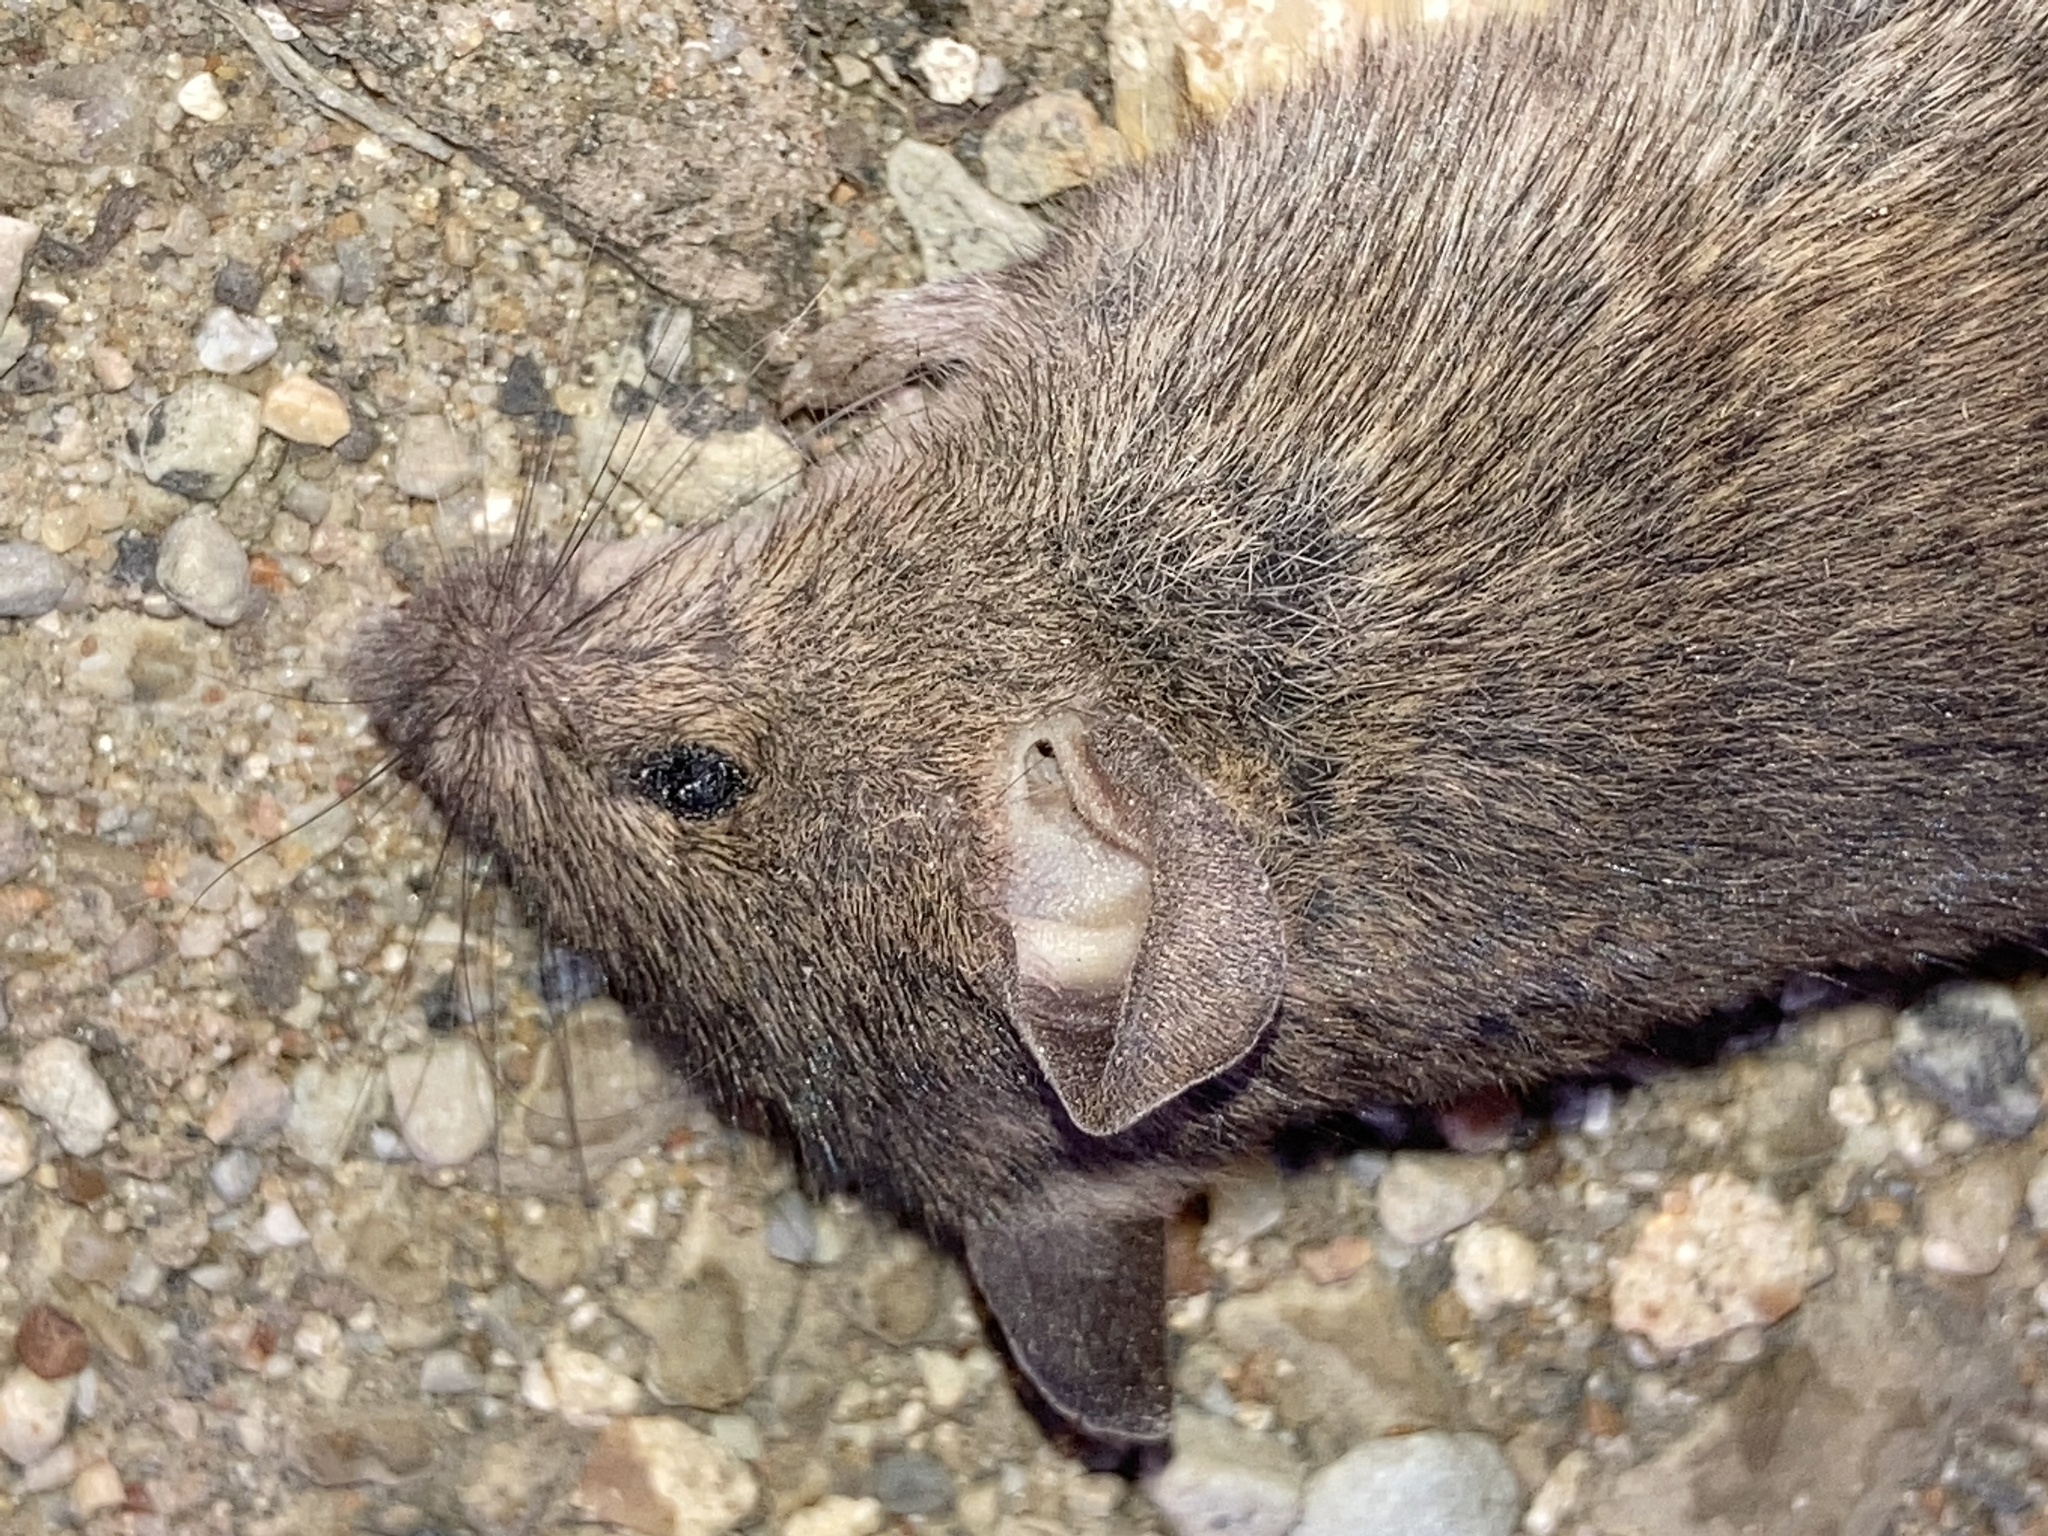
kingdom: Animalia
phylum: Chordata
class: Mammalia
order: Rodentia
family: Muridae
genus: Mus
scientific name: Mus musculus
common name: House mouse
